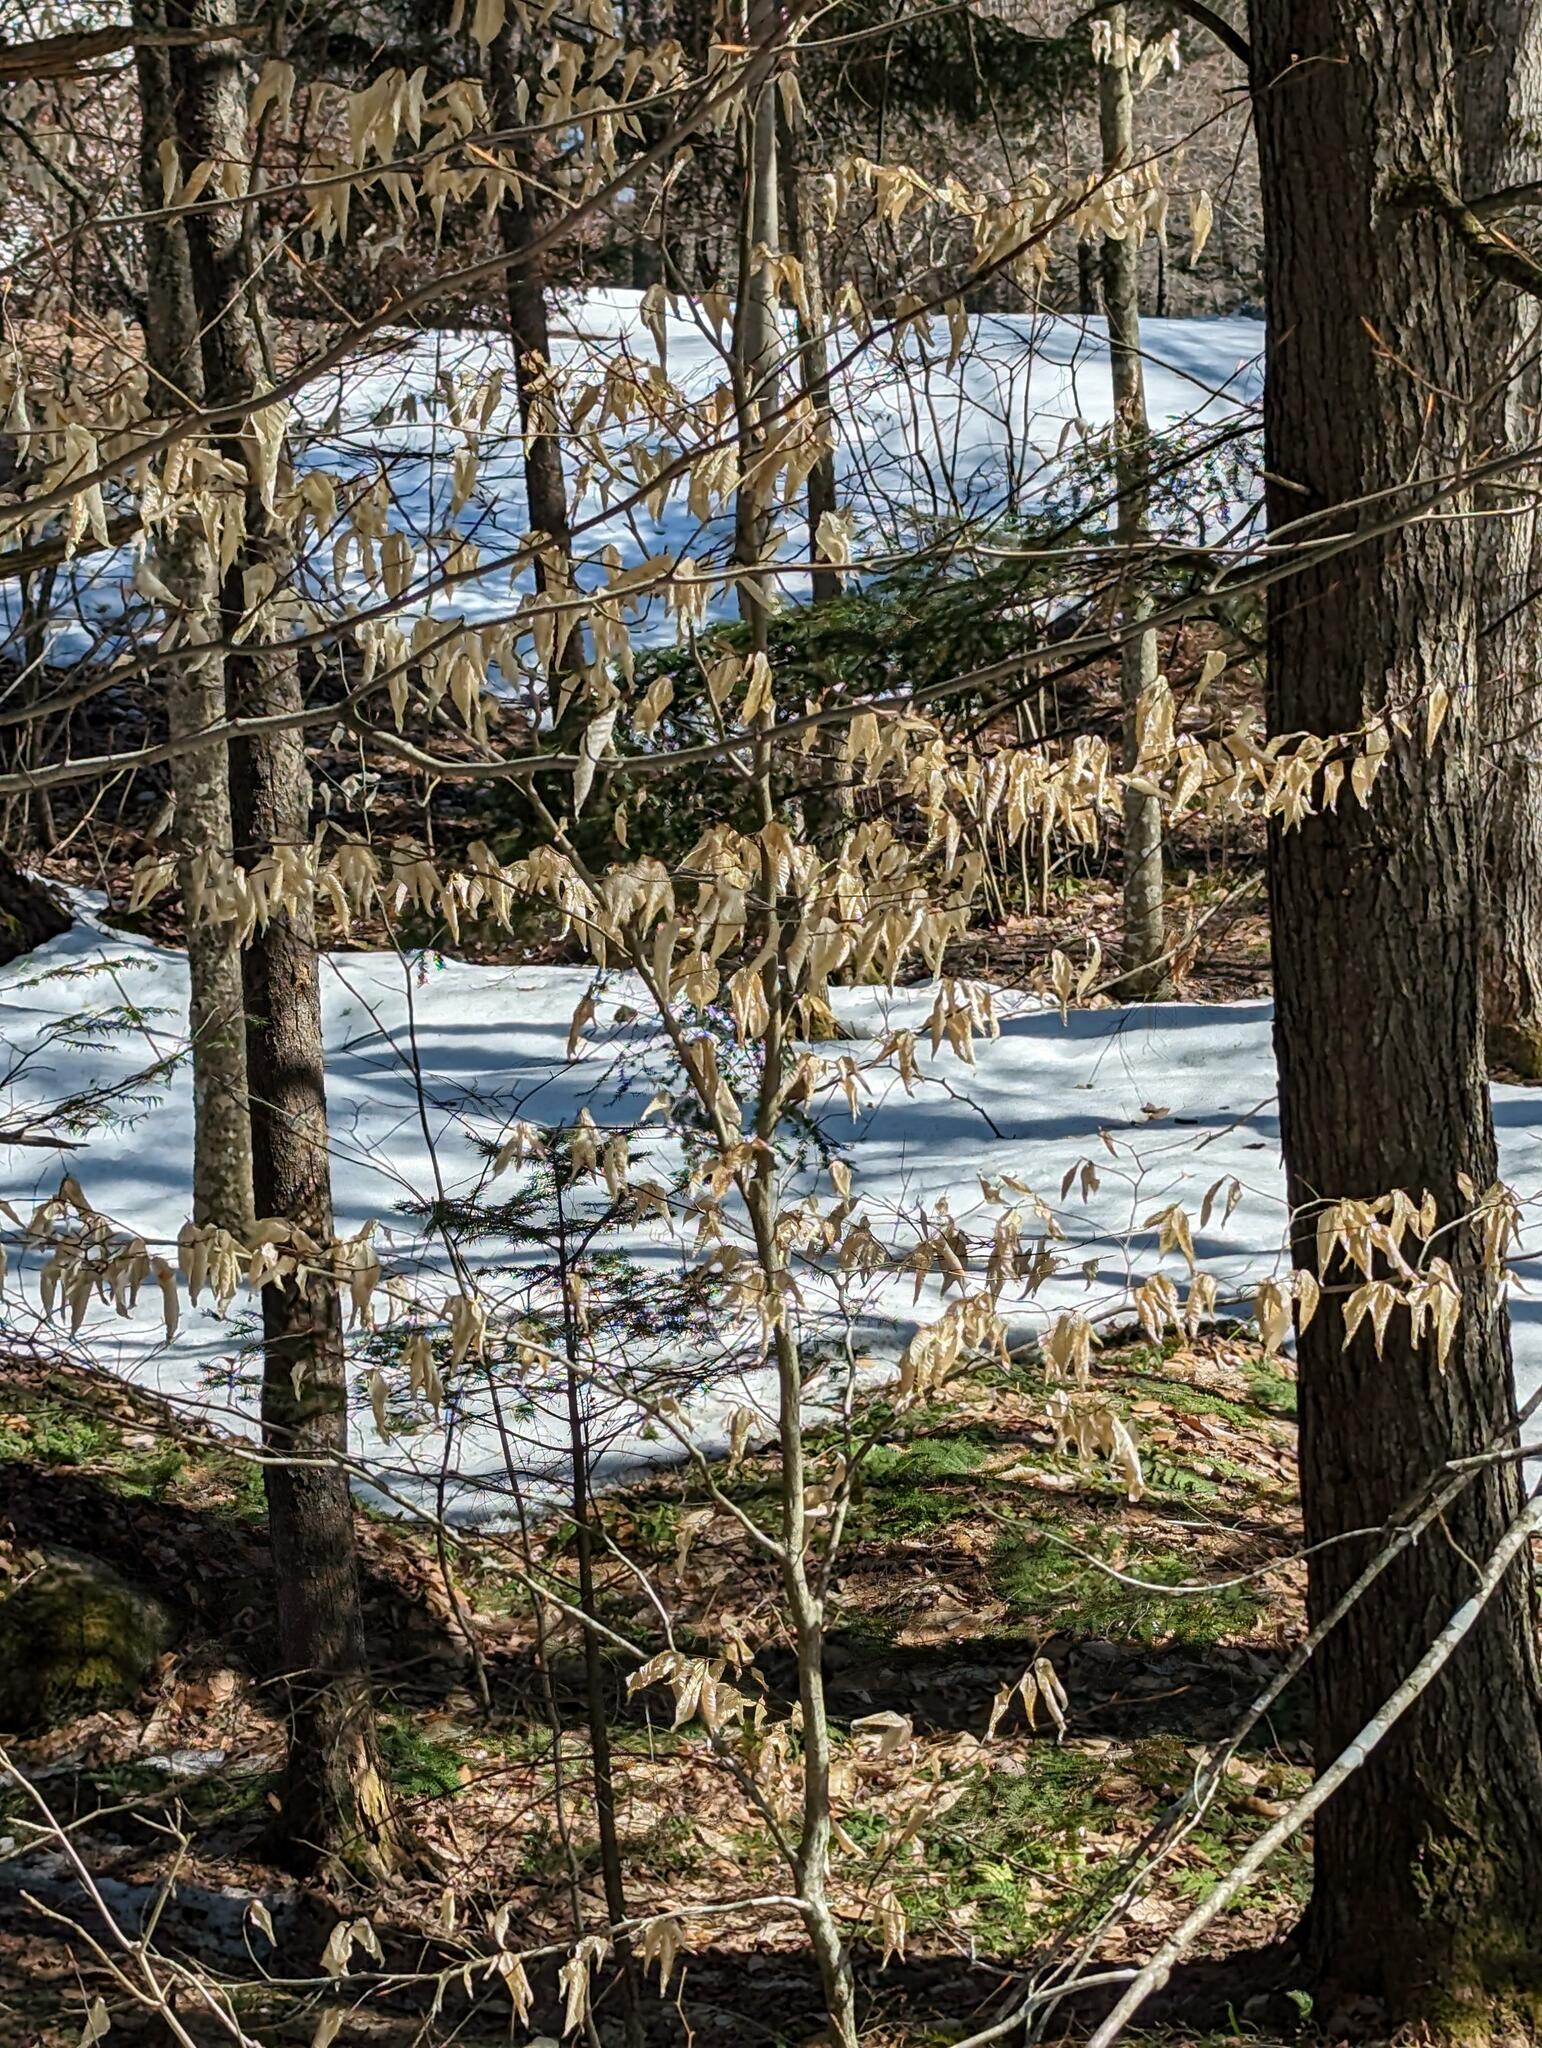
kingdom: Plantae
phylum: Tracheophyta
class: Magnoliopsida
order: Fagales
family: Fagaceae
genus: Fagus
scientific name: Fagus grandifolia
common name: American beech
